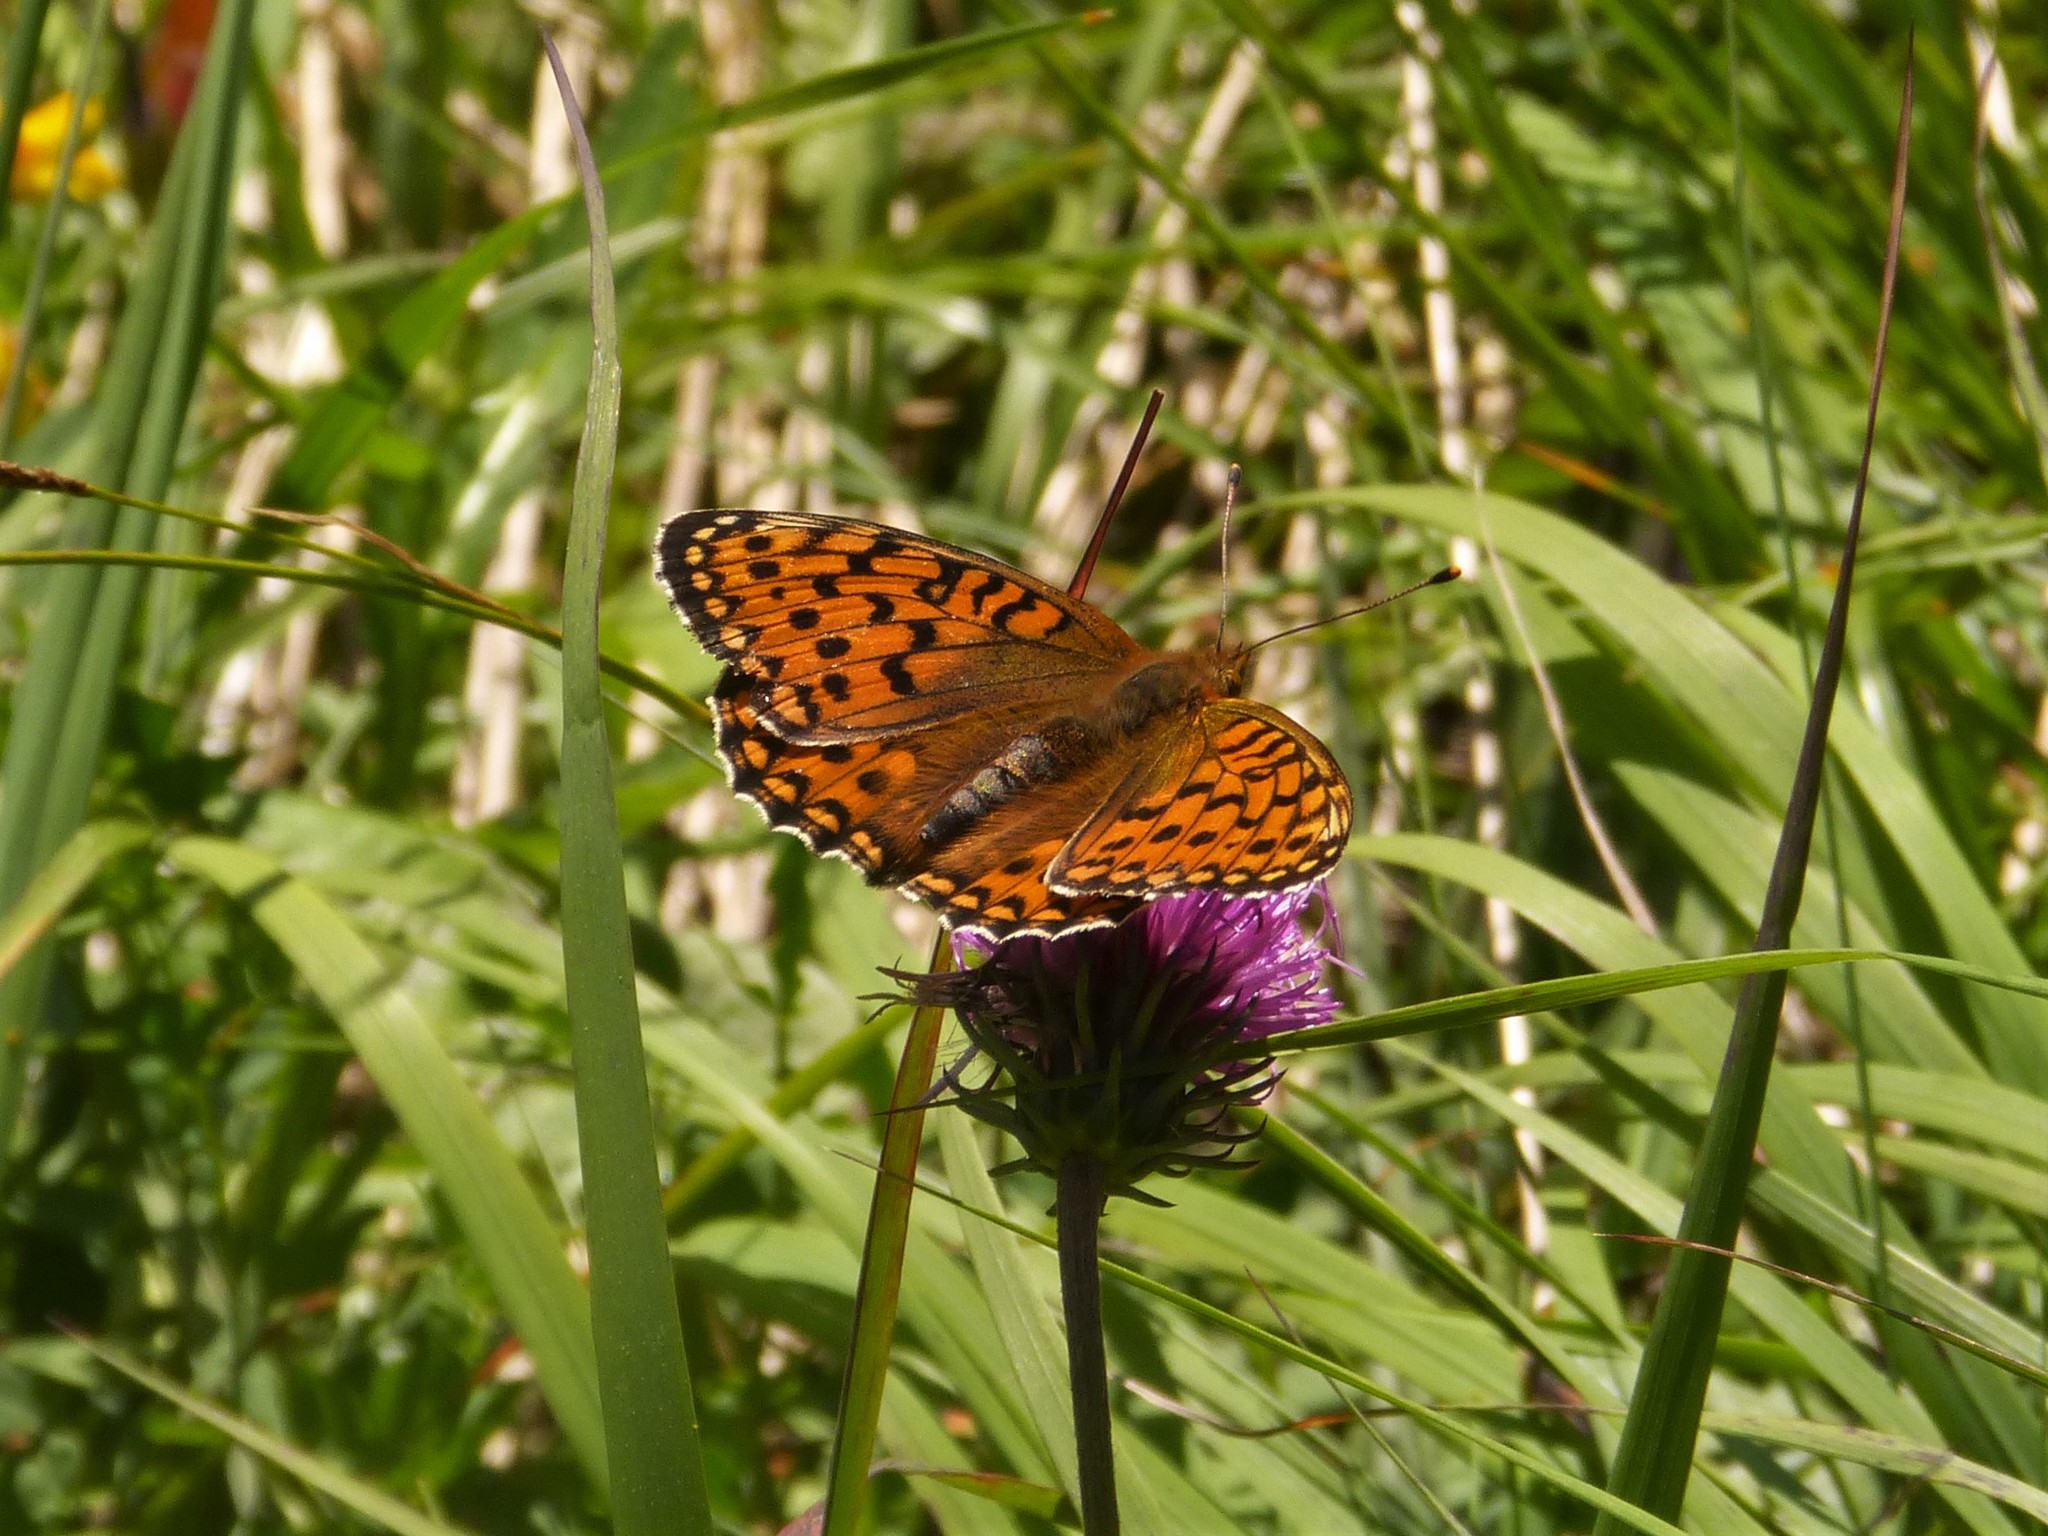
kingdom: Animalia
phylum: Arthropoda
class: Insecta
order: Lepidoptera
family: Nymphalidae
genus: Speyeria
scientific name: Speyeria aglaja
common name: Dark green fritillary
